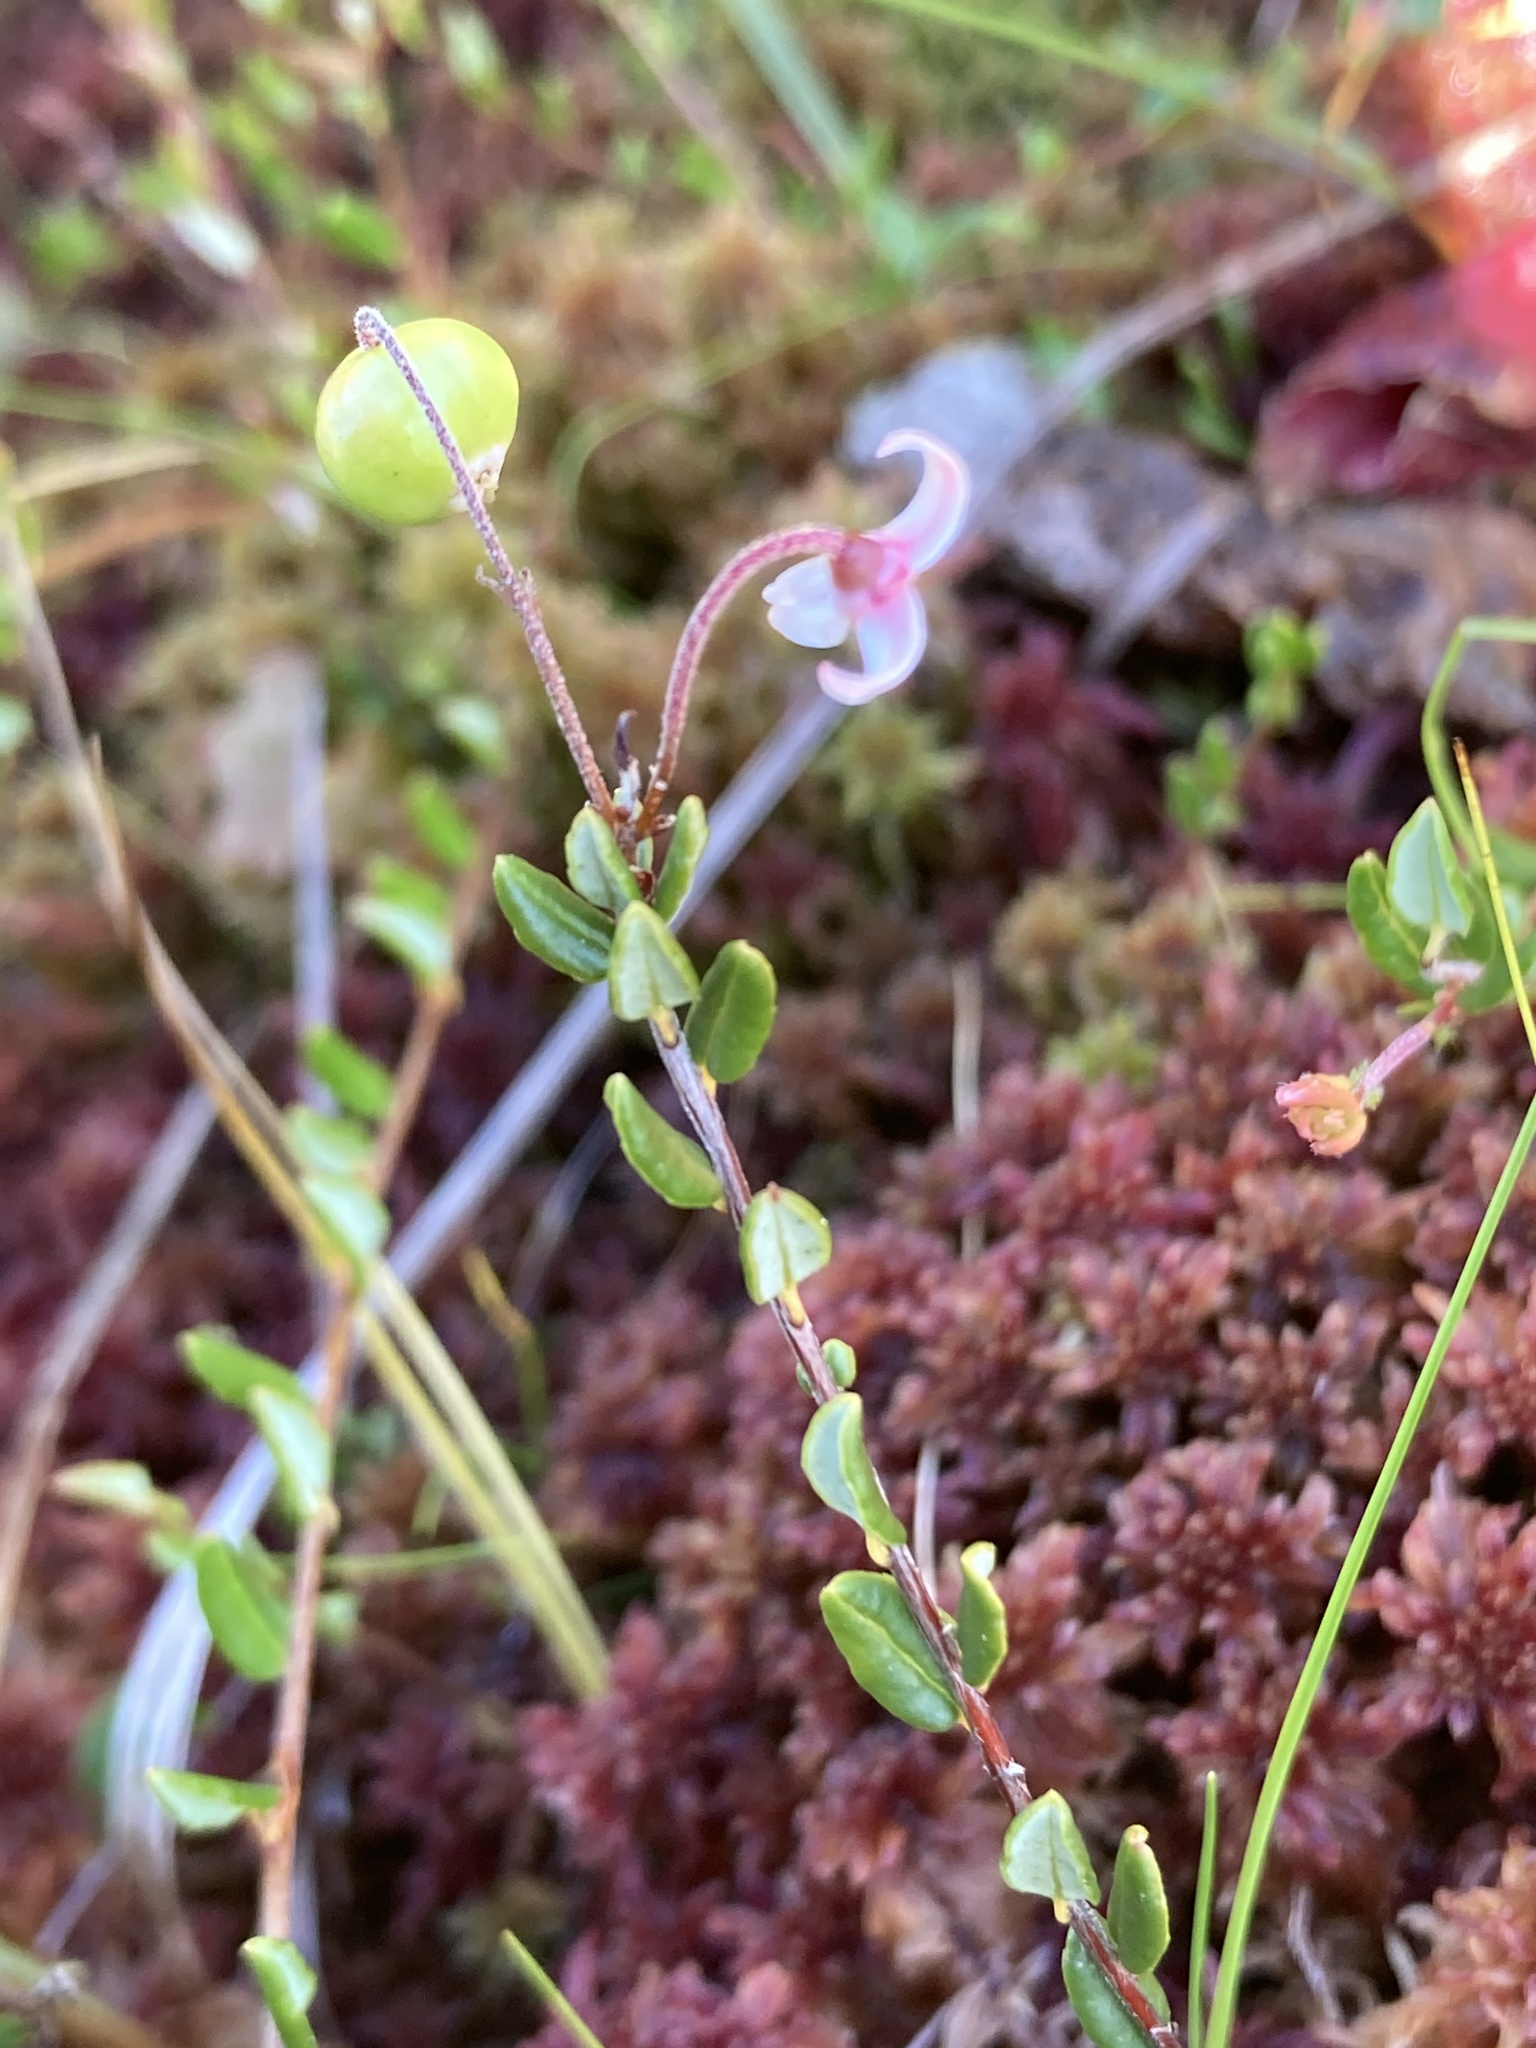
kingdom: Plantae
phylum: Tracheophyta
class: Magnoliopsida
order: Ericales
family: Ericaceae
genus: Vaccinium
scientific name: Vaccinium oxycoccos
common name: Cranberry
